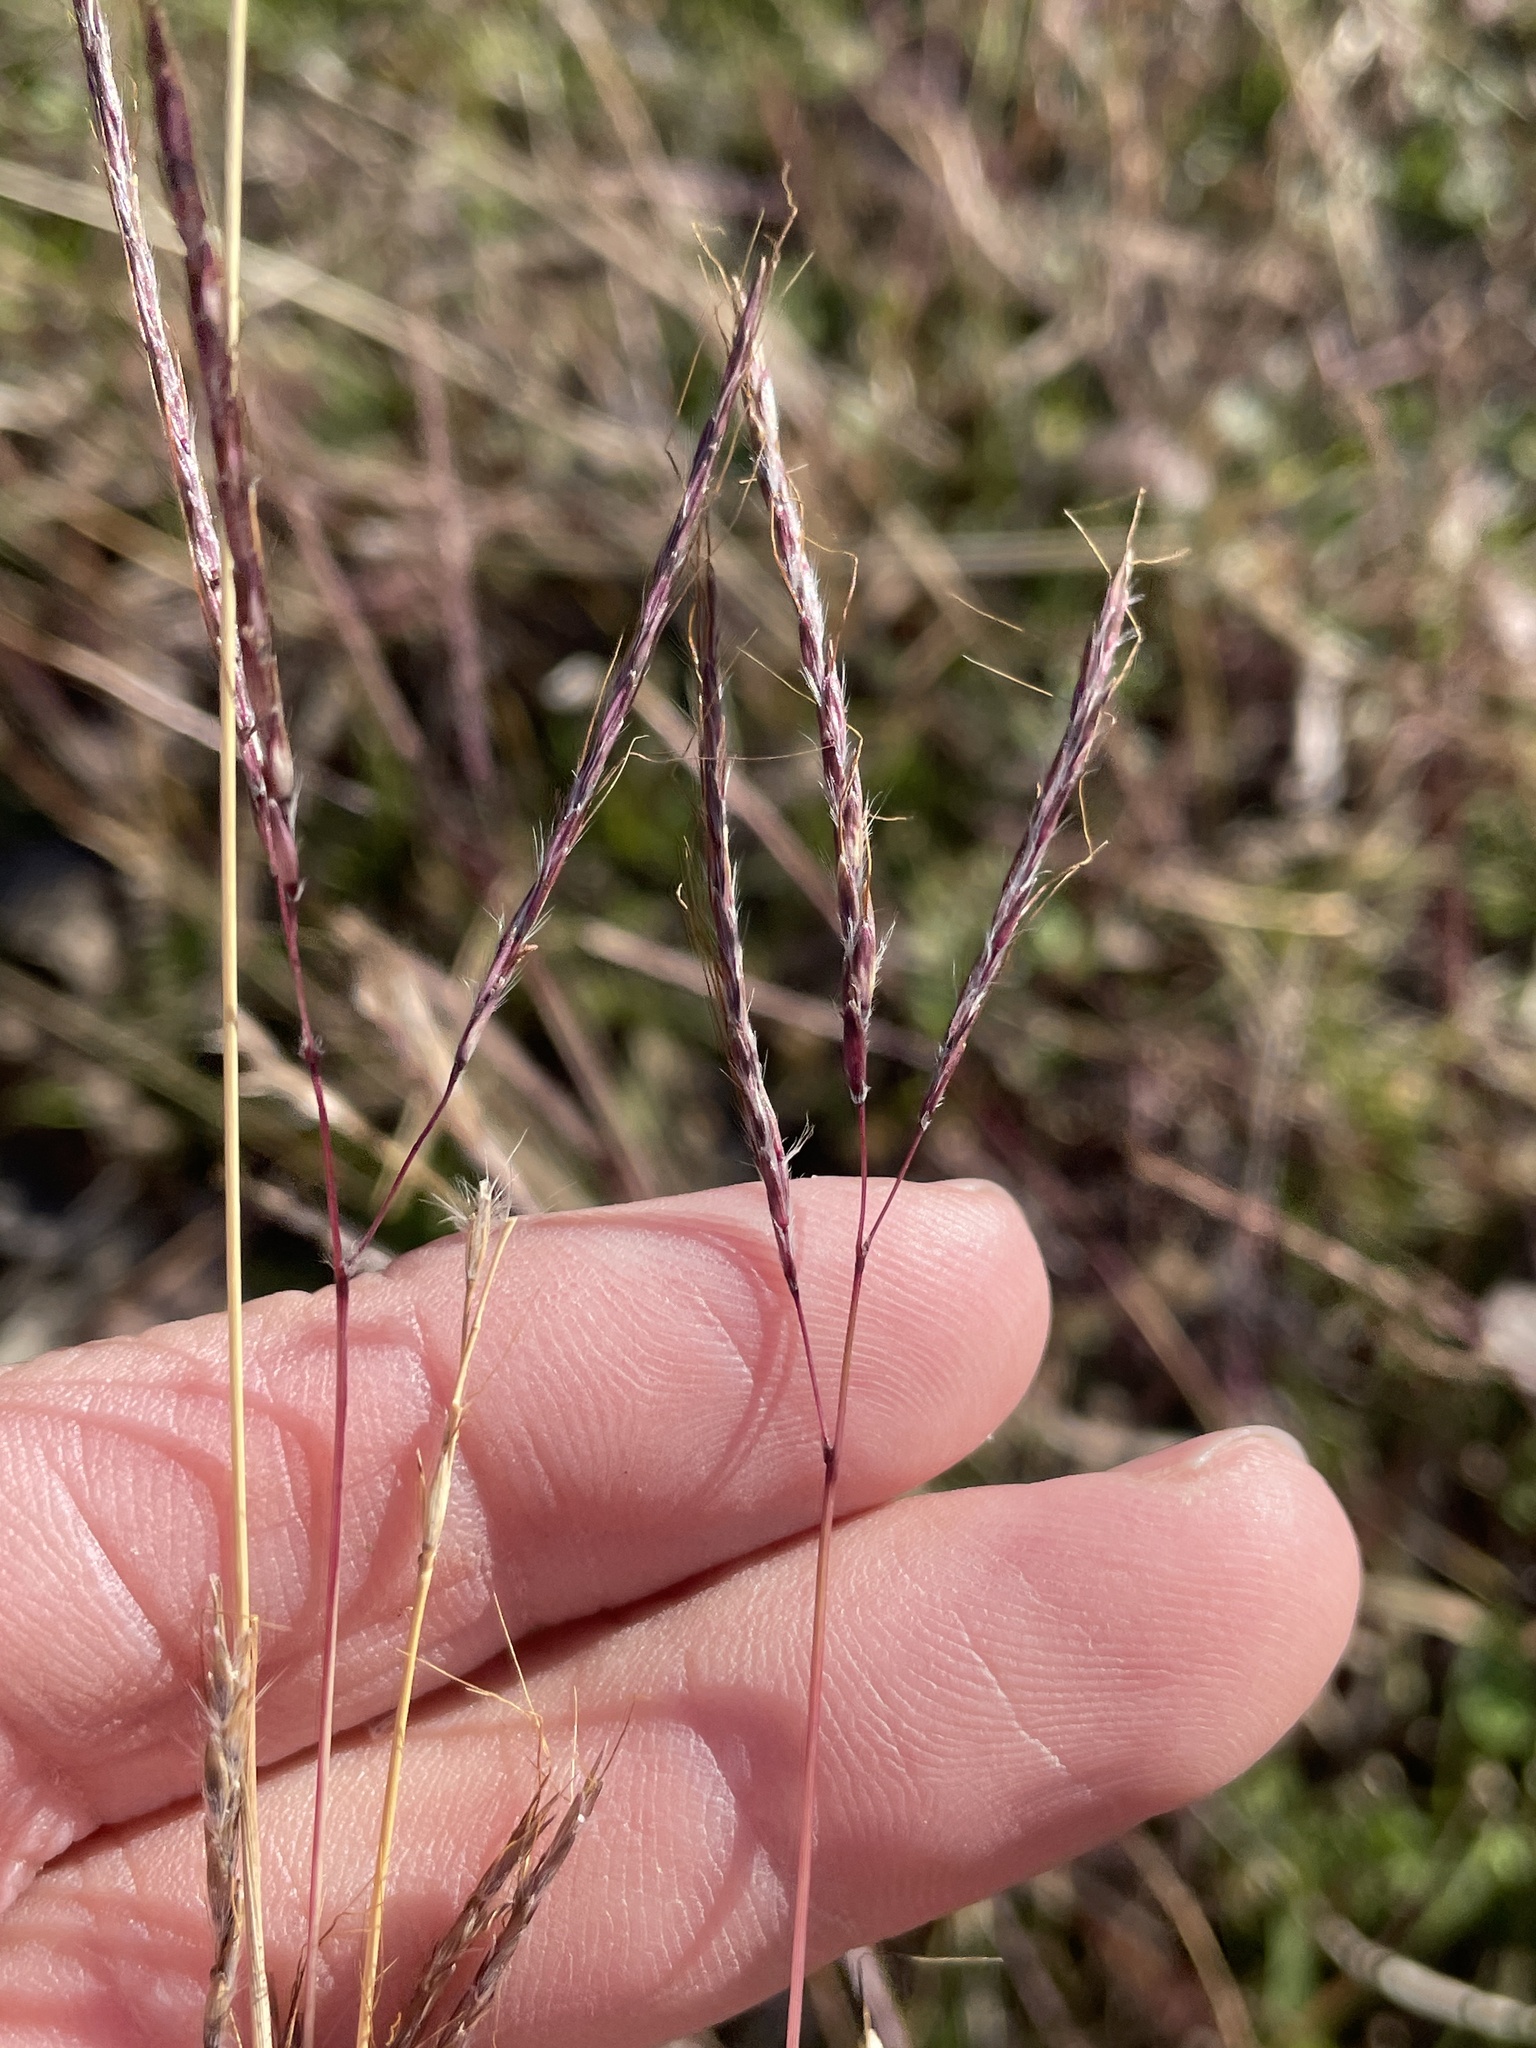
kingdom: Plantae
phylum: Tracheophyta
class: Liliopsida
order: Poales
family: Poaceae
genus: Bothriochloa
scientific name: Bothriochloa ischaemum
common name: Yellow bluestem
